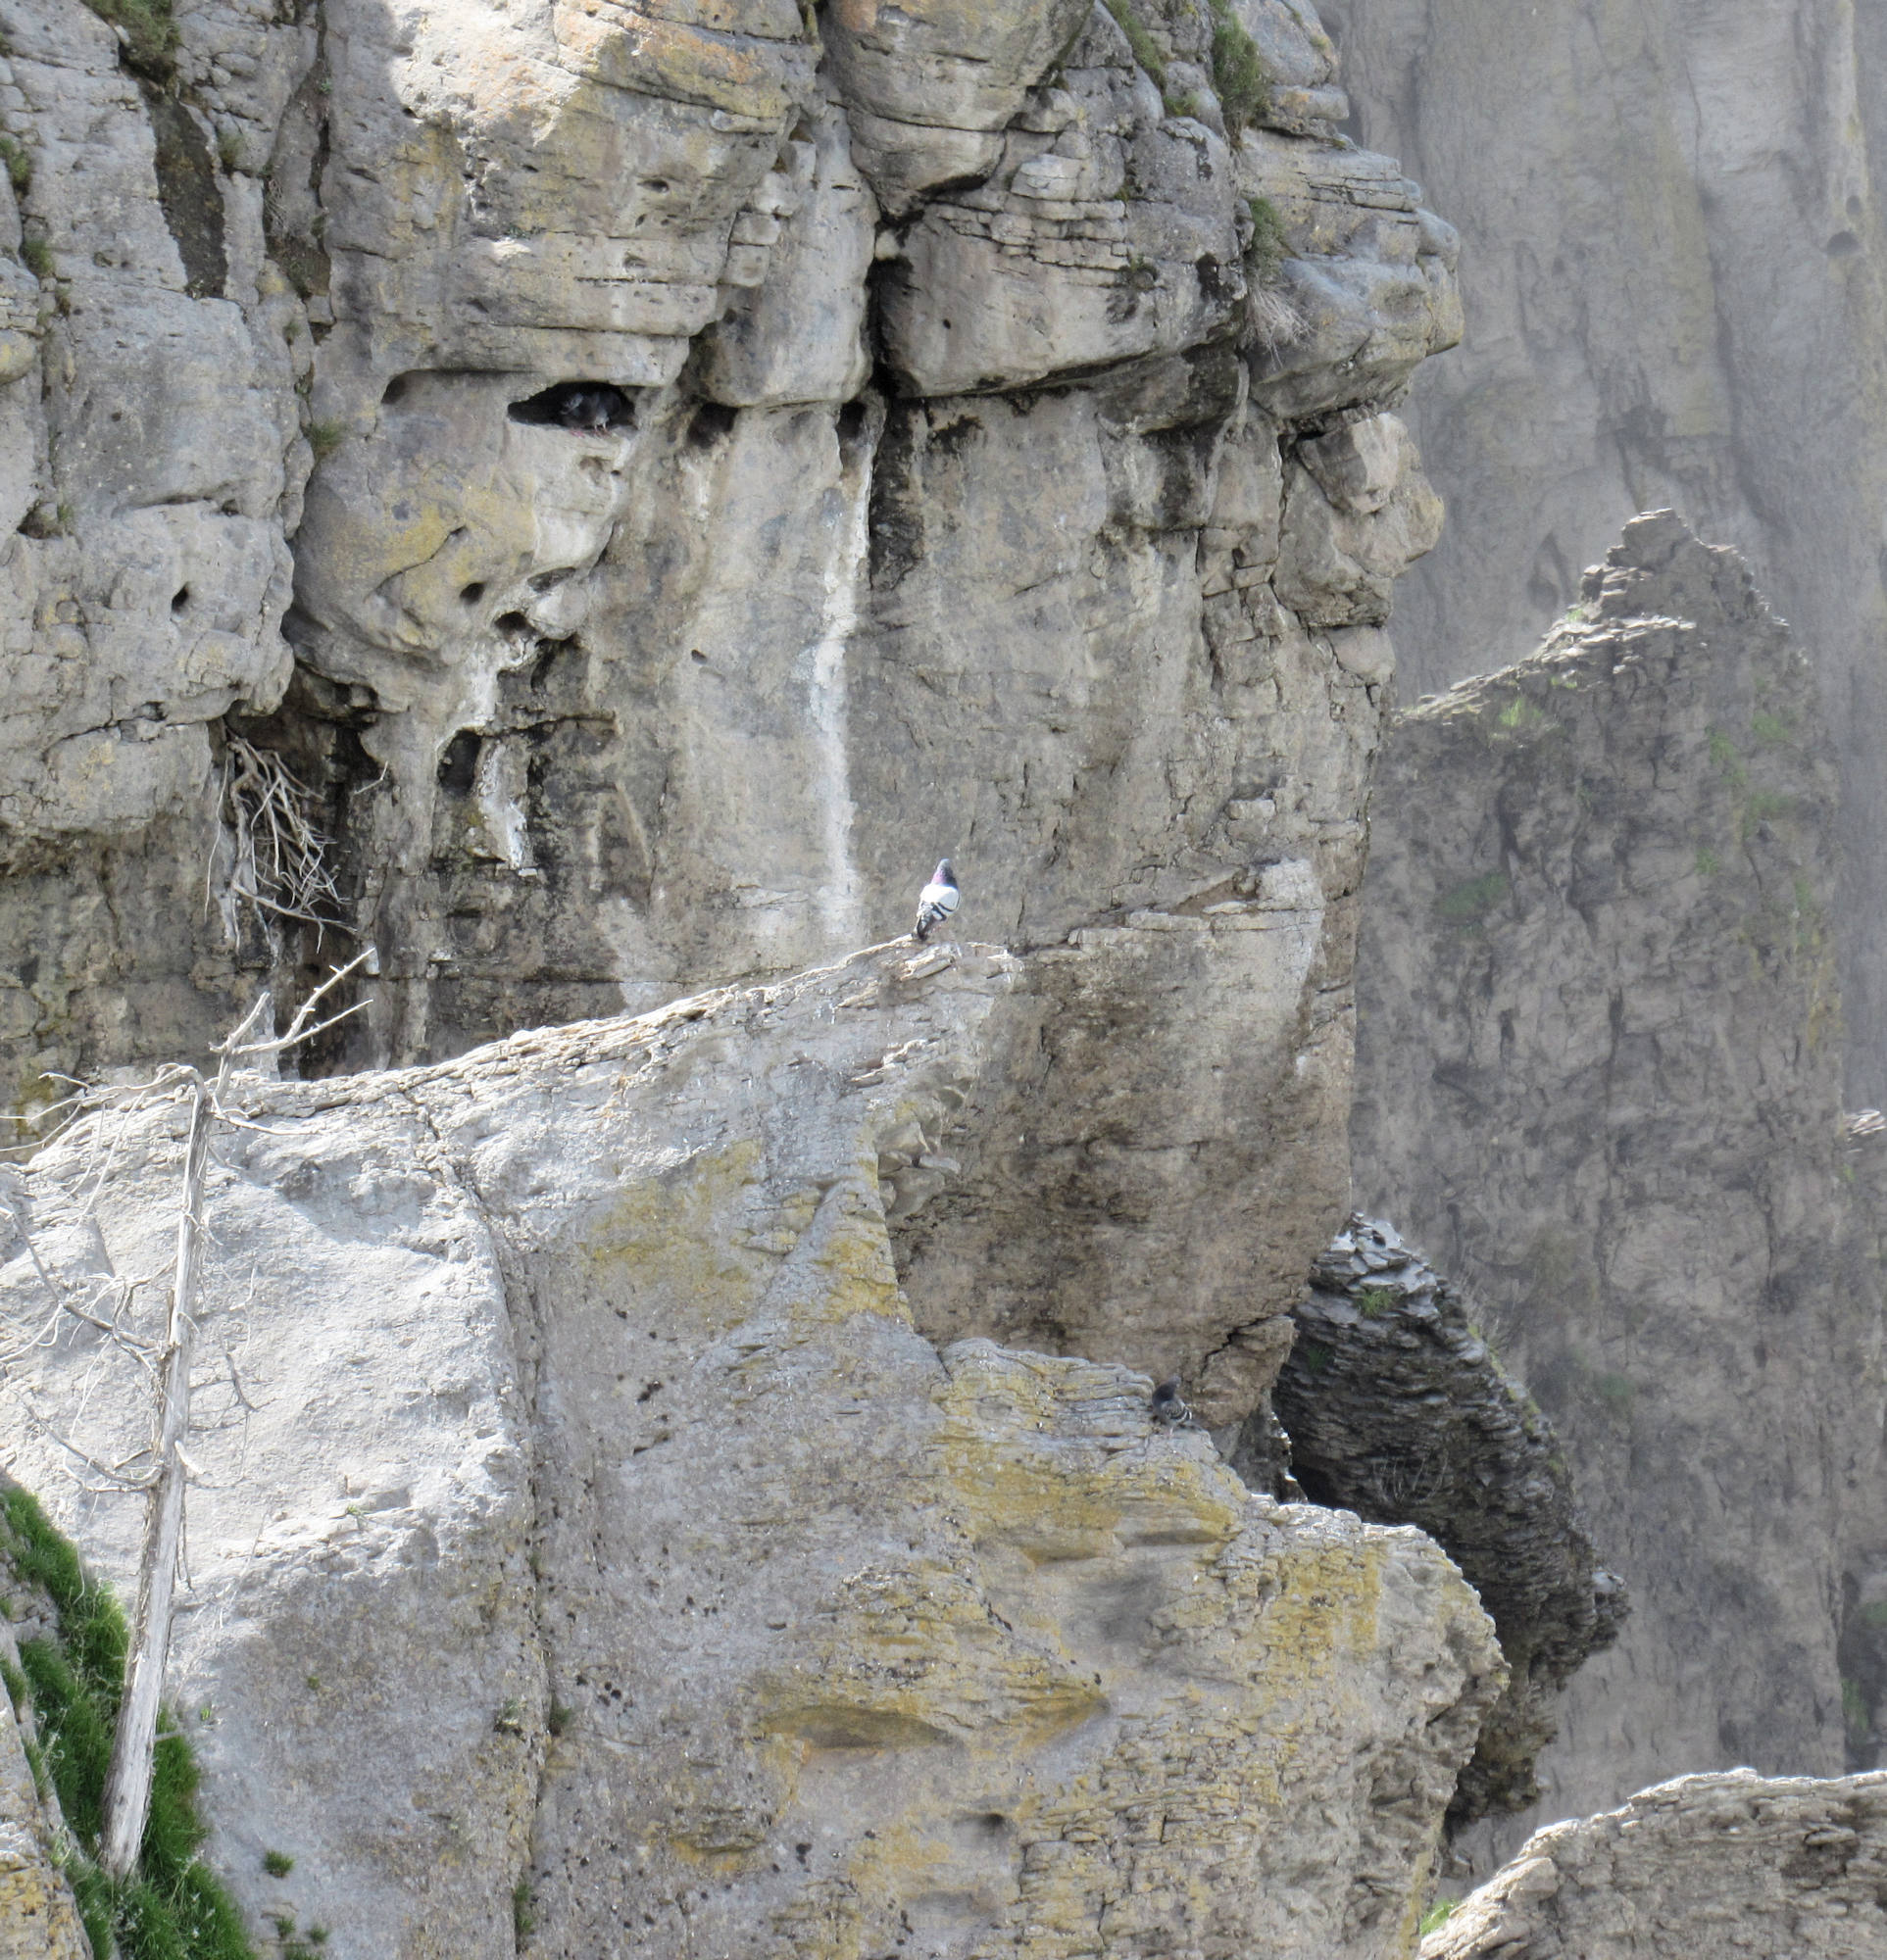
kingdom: Animalia
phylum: Chordata
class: Aves
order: Columbiformes
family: Columbidae
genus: Columba
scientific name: Columba livia
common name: Rock pigeon
